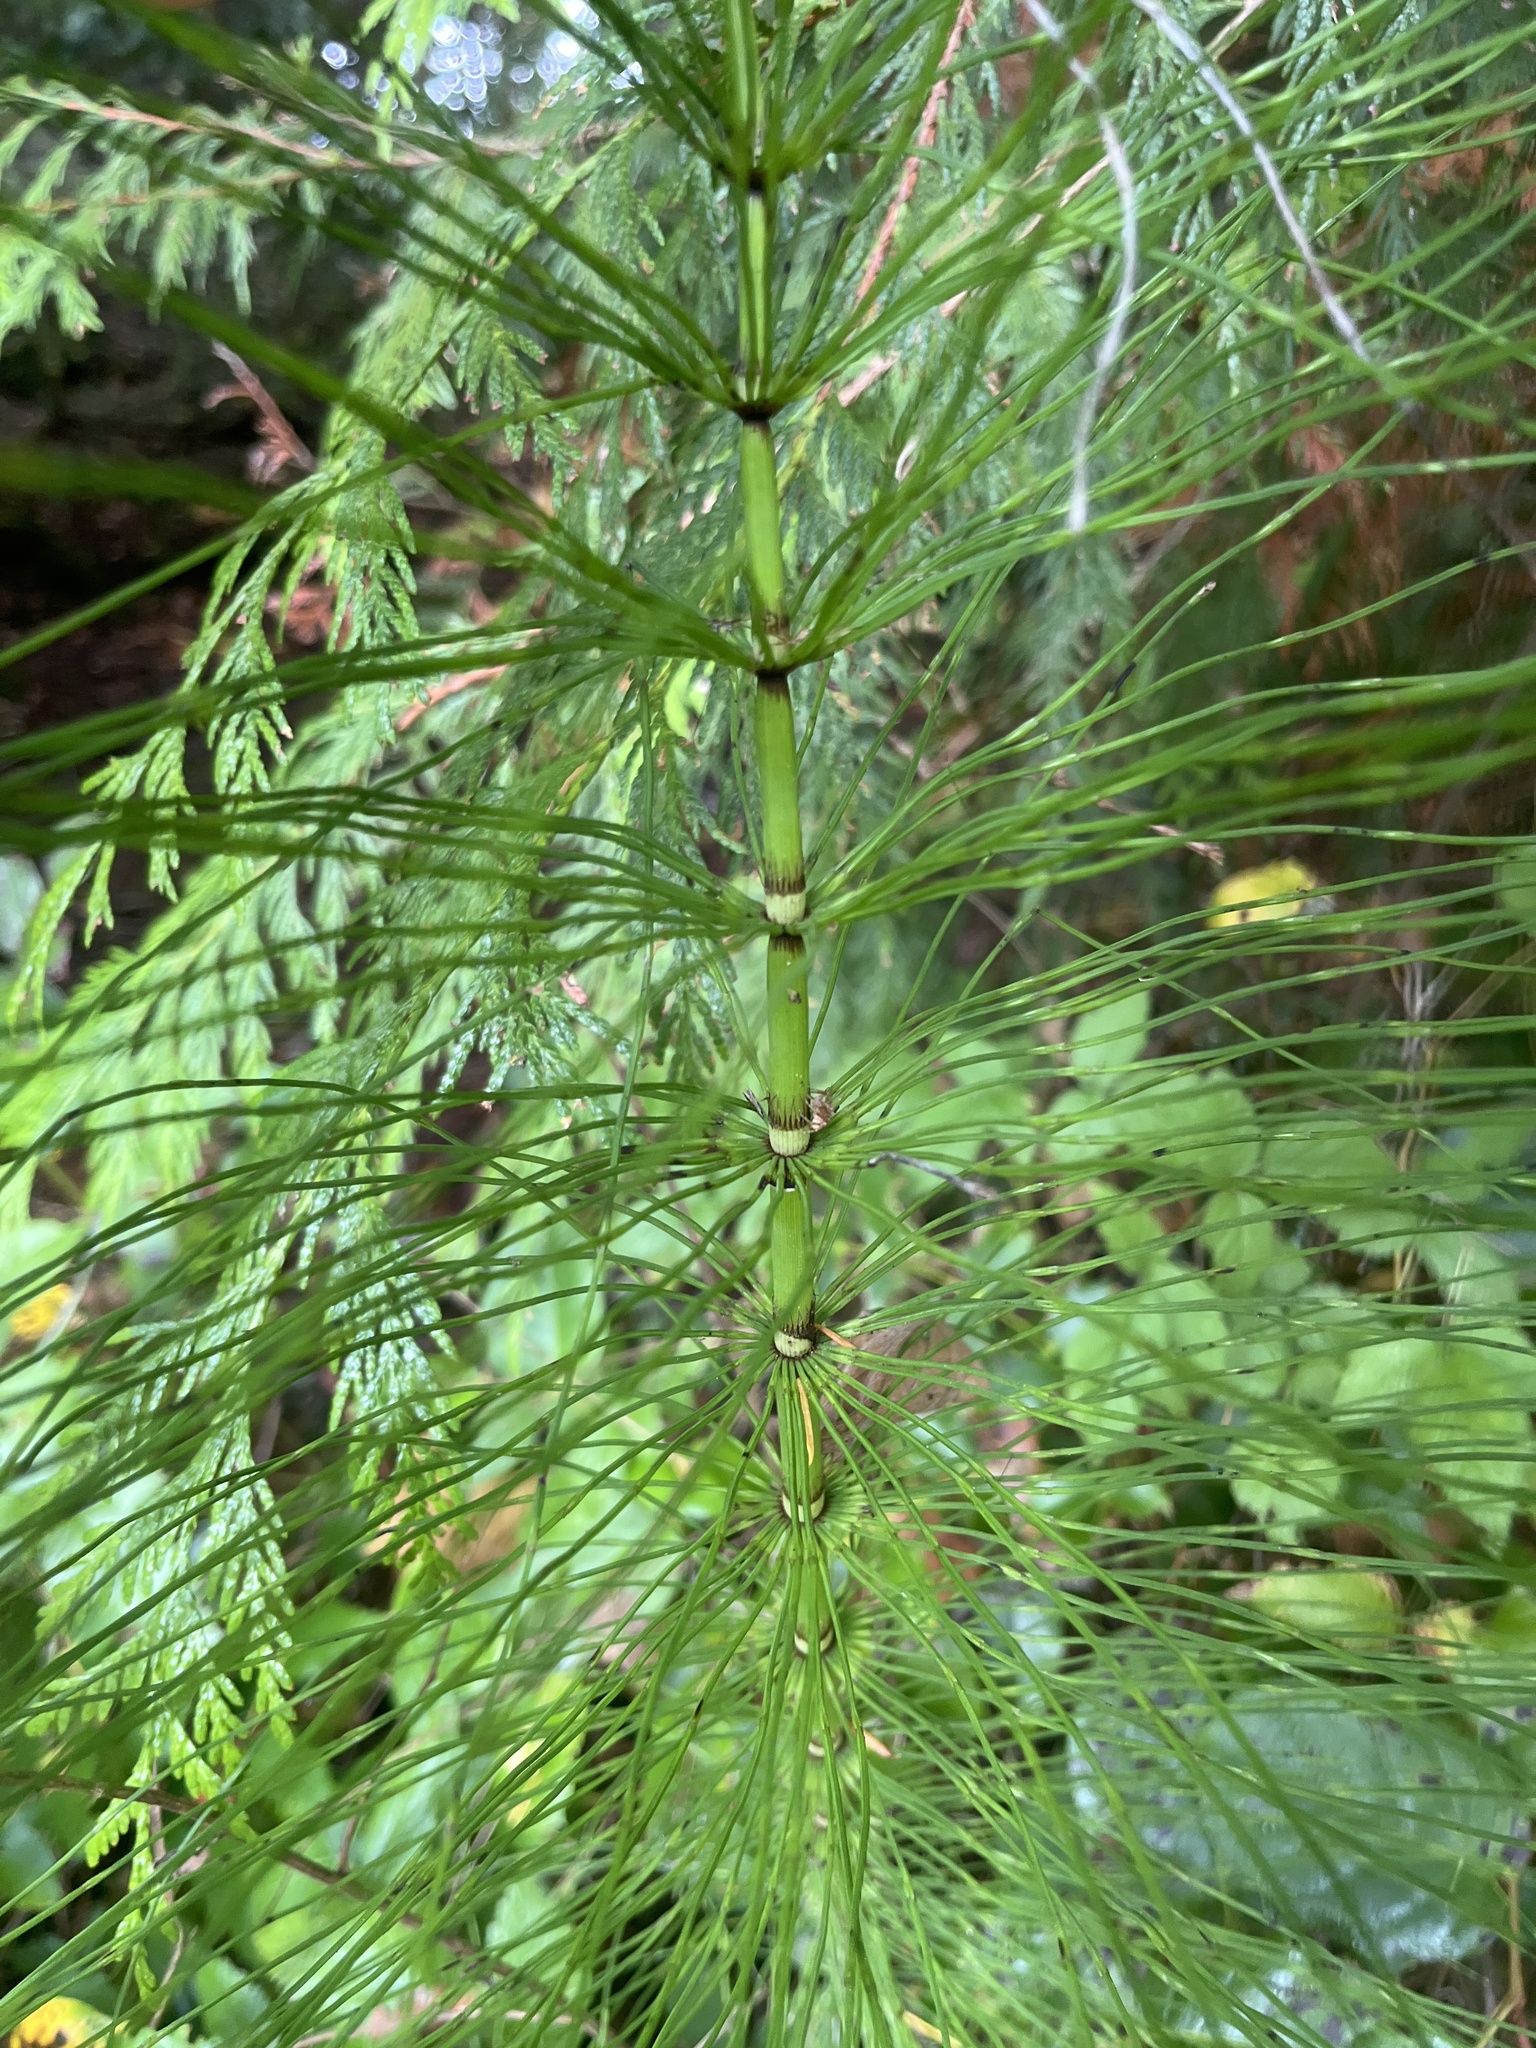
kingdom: Plantae
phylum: Tracheophyta
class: Polypodiopsida
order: Equisetales
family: Equisetaceae
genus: Equisetum
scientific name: Equisetum telmateia
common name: Great horsetail
